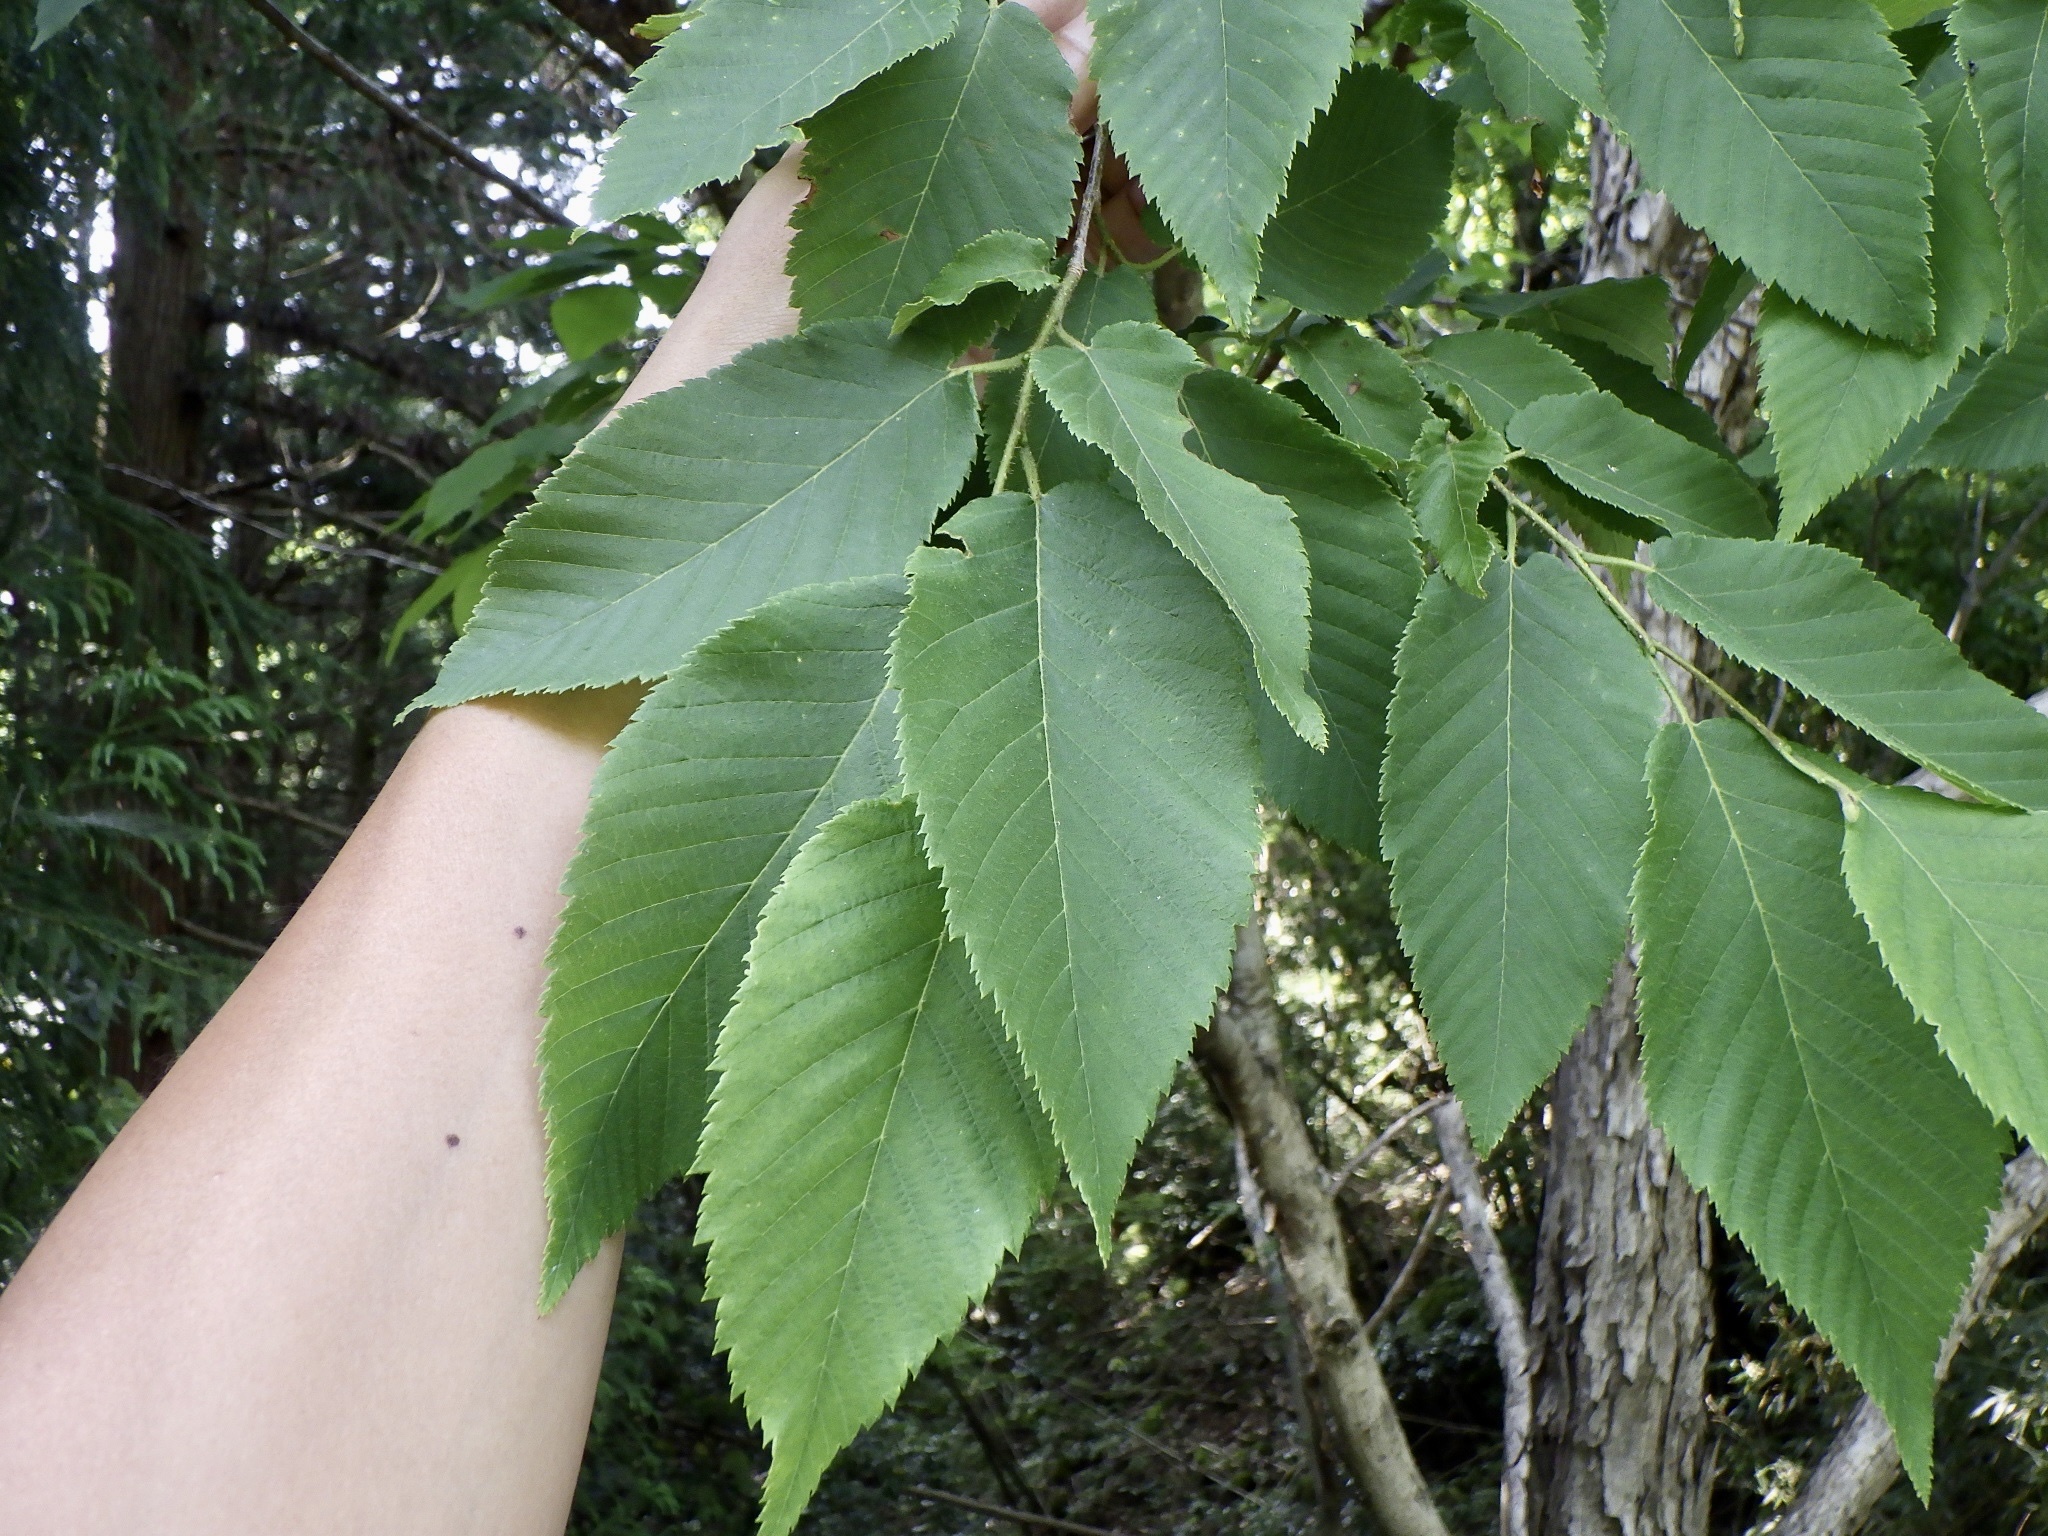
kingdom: Plantae
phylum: Tracheophyta
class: Magnoliopsida
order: Fagales
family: Betulaceae
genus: Ostrya
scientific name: Ostrya japonica
